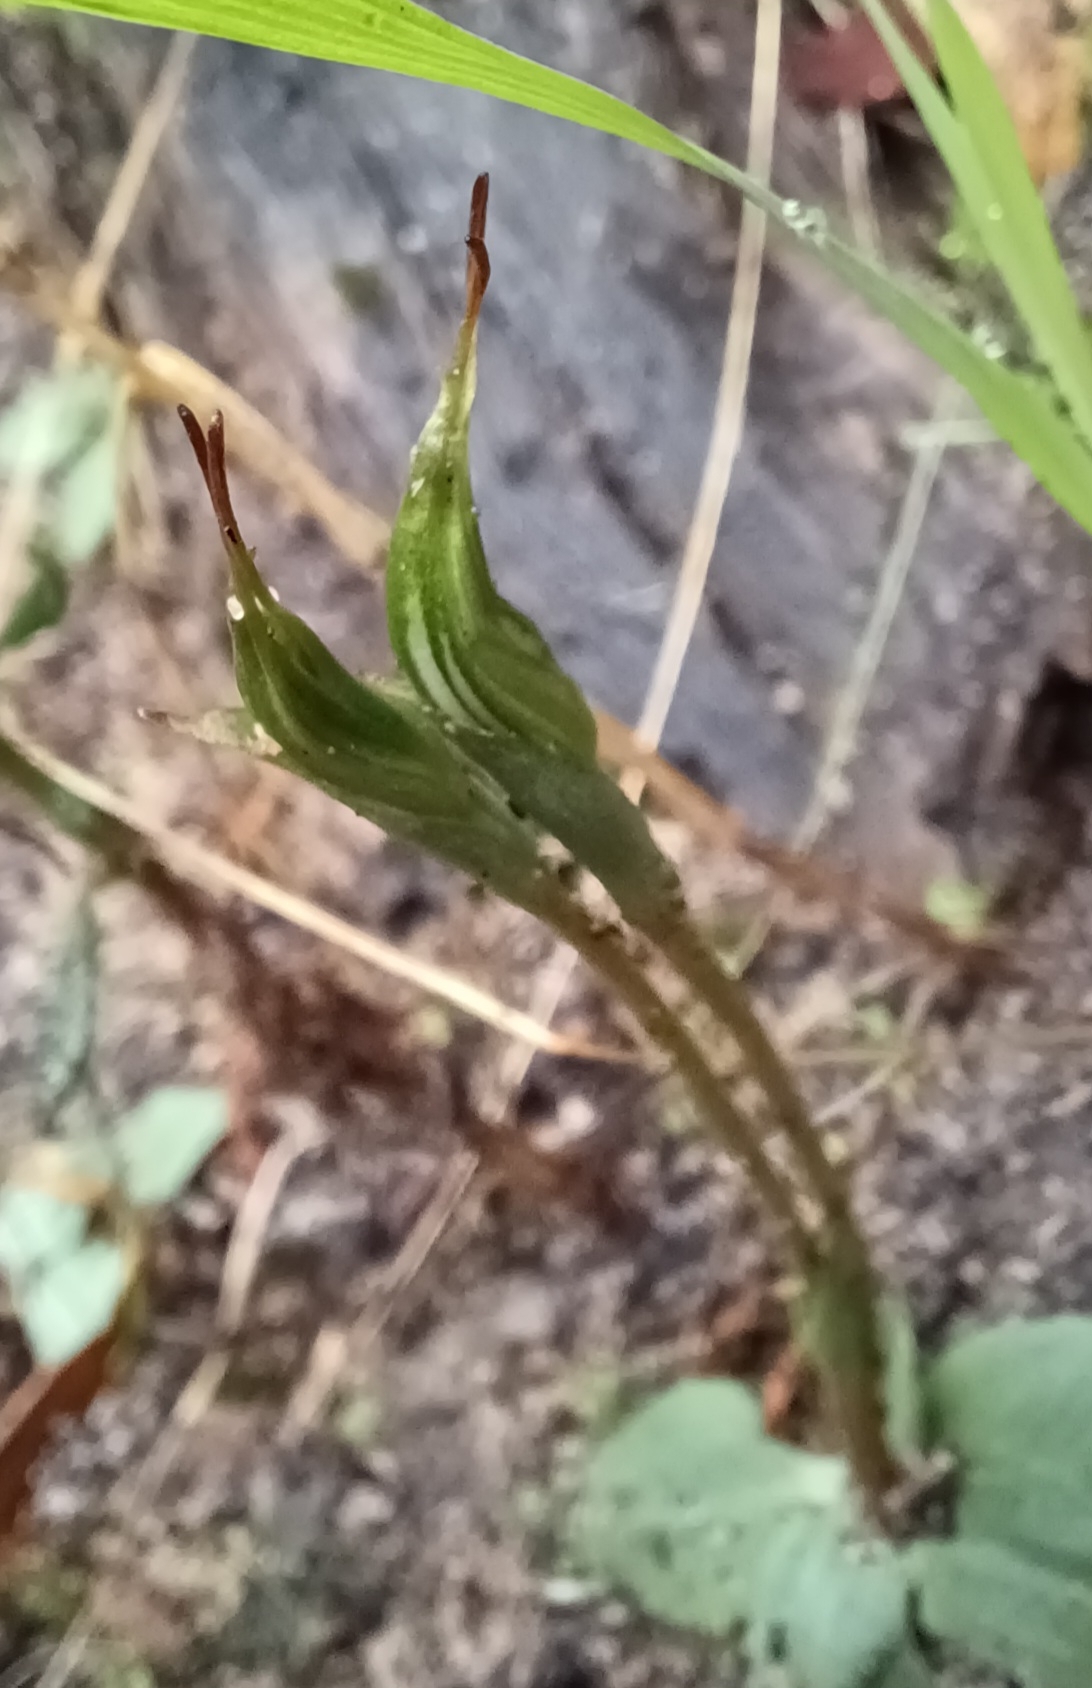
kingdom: Plantae
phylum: Tracheophyta
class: Liliopsida
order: Asparagales
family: Orchidaceae
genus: Pterostylis
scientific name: Pterostylis concinna
